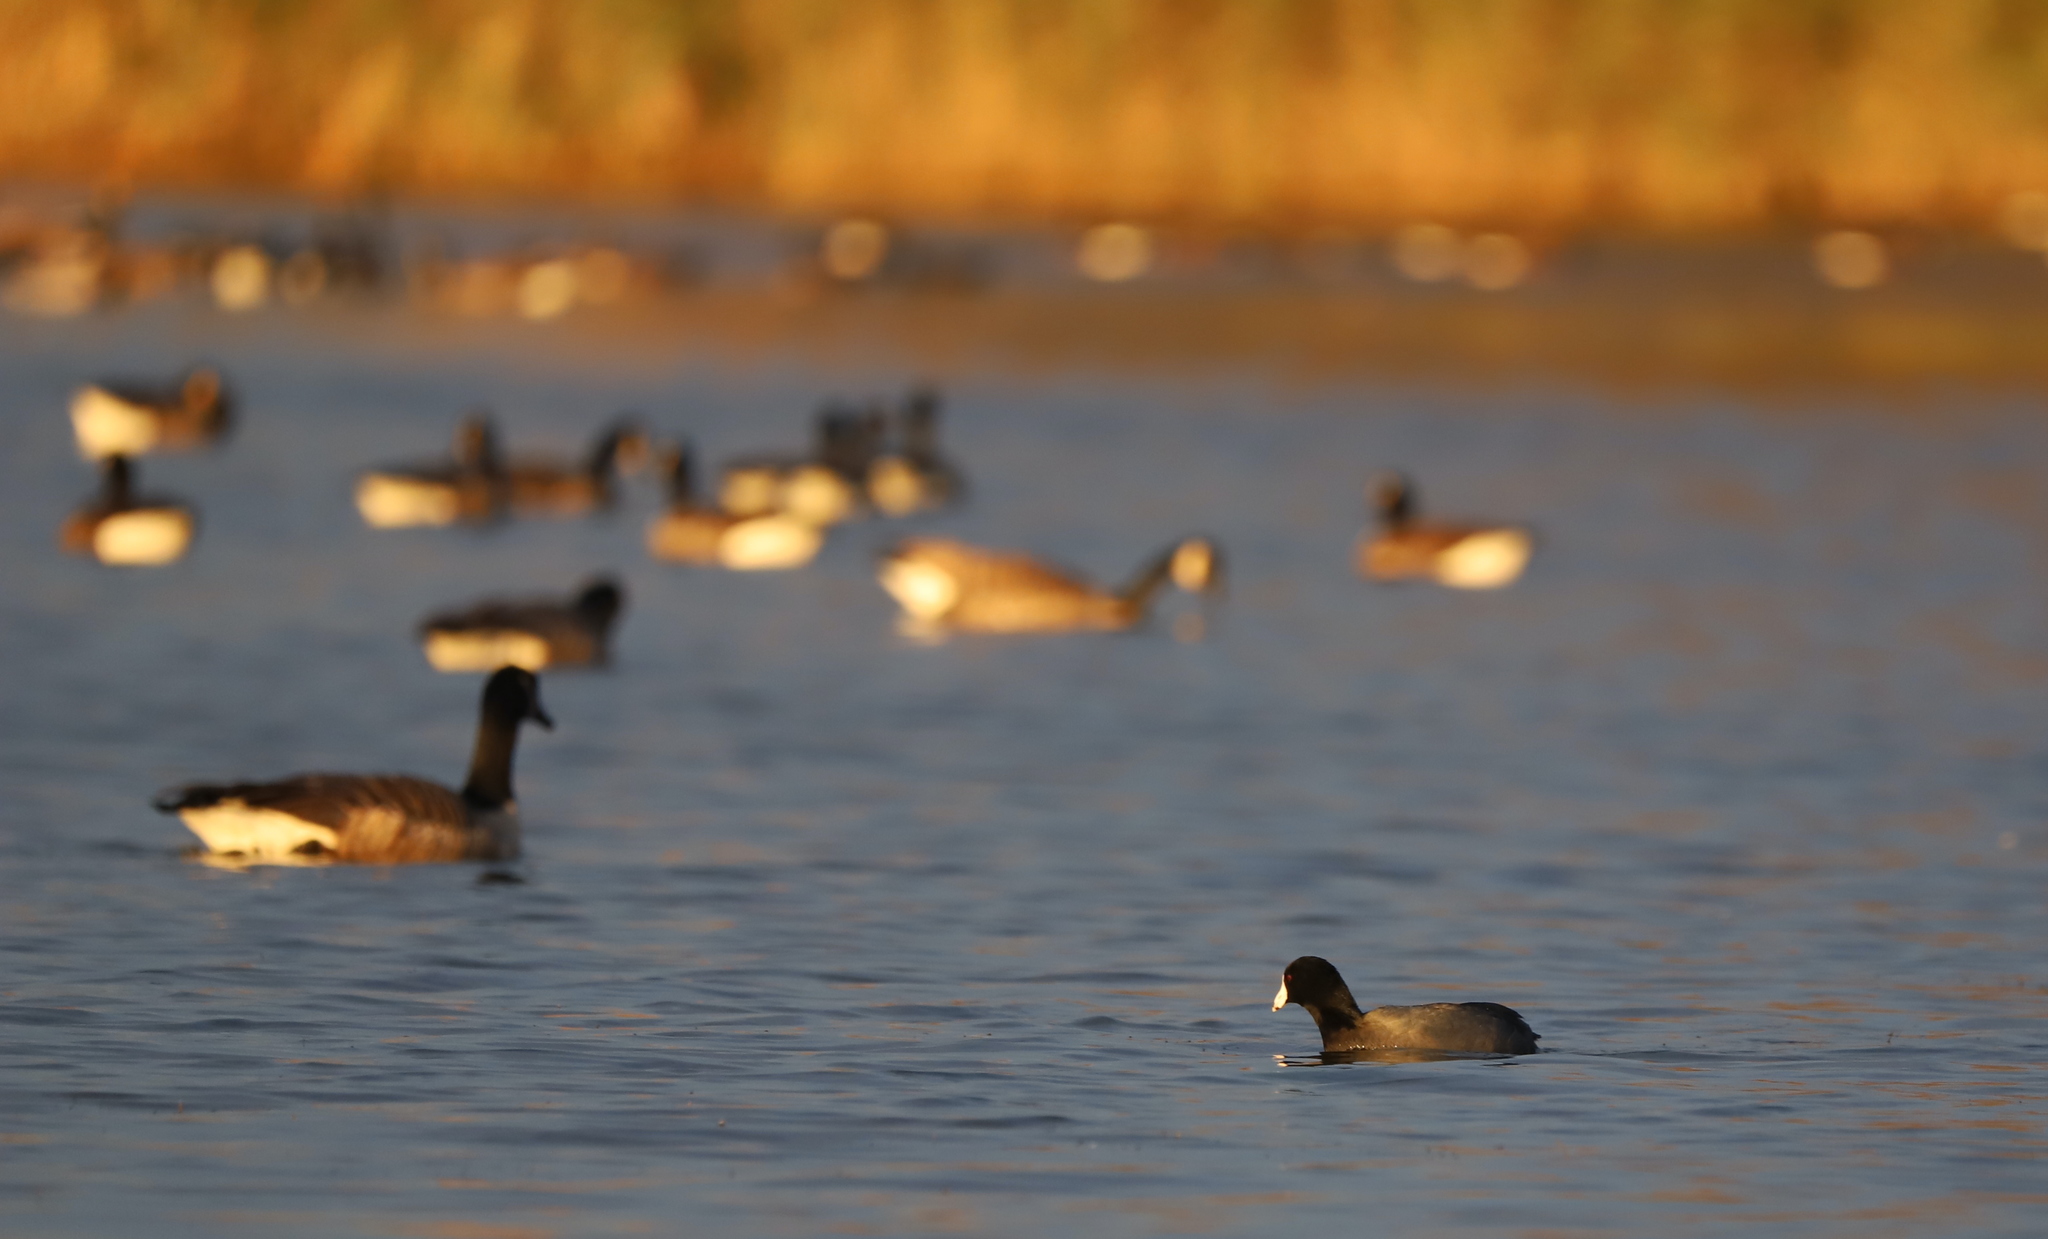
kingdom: Animalia
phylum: Chordata
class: Aves
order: Gruiformes
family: Rallidae
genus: Fulica
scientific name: Fulica americana
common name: American coot
